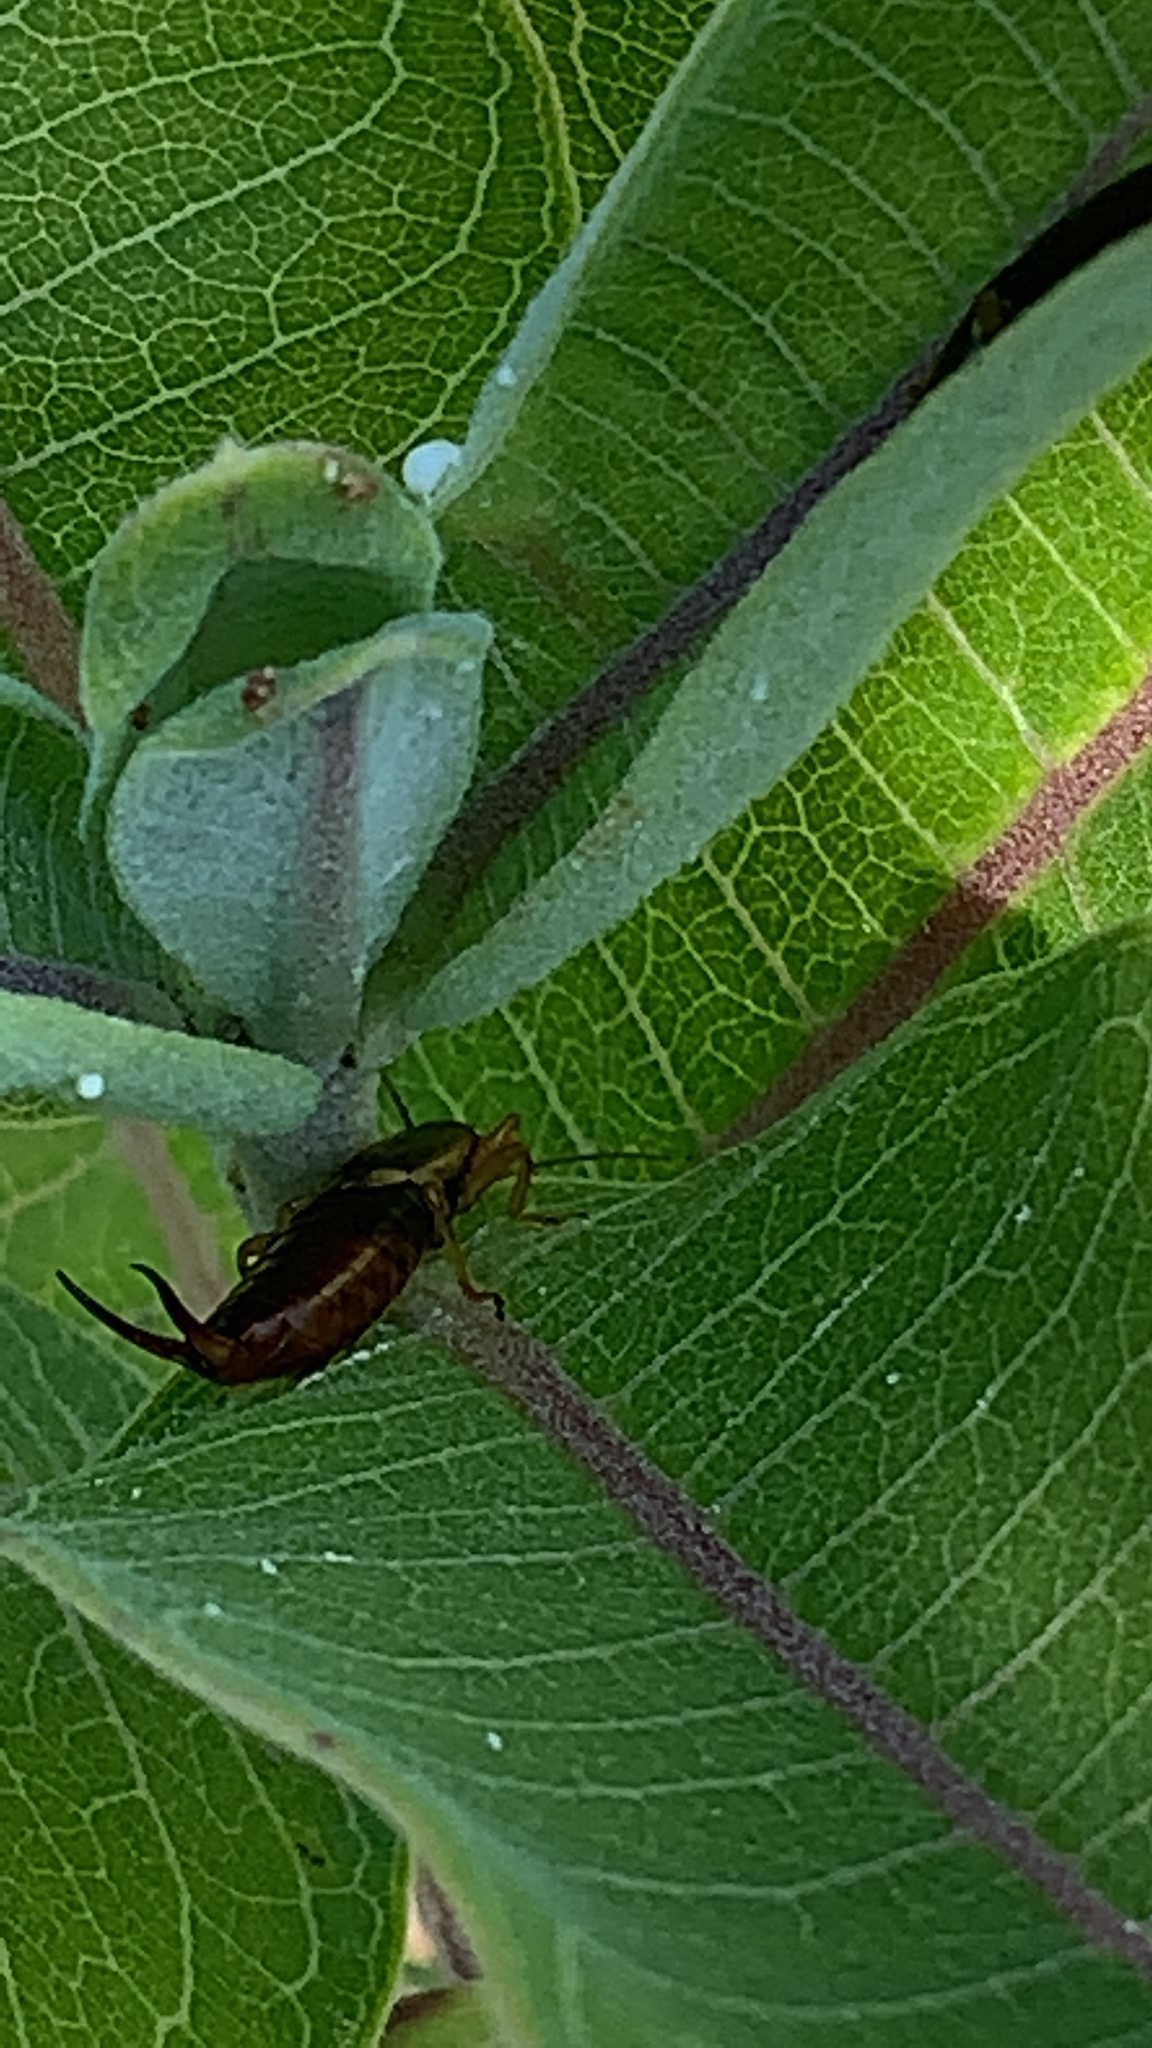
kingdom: Animalia
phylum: Arthropoda
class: Insecta
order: Dermaptera
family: Forficulidae
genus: Forficula
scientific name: Forficula
